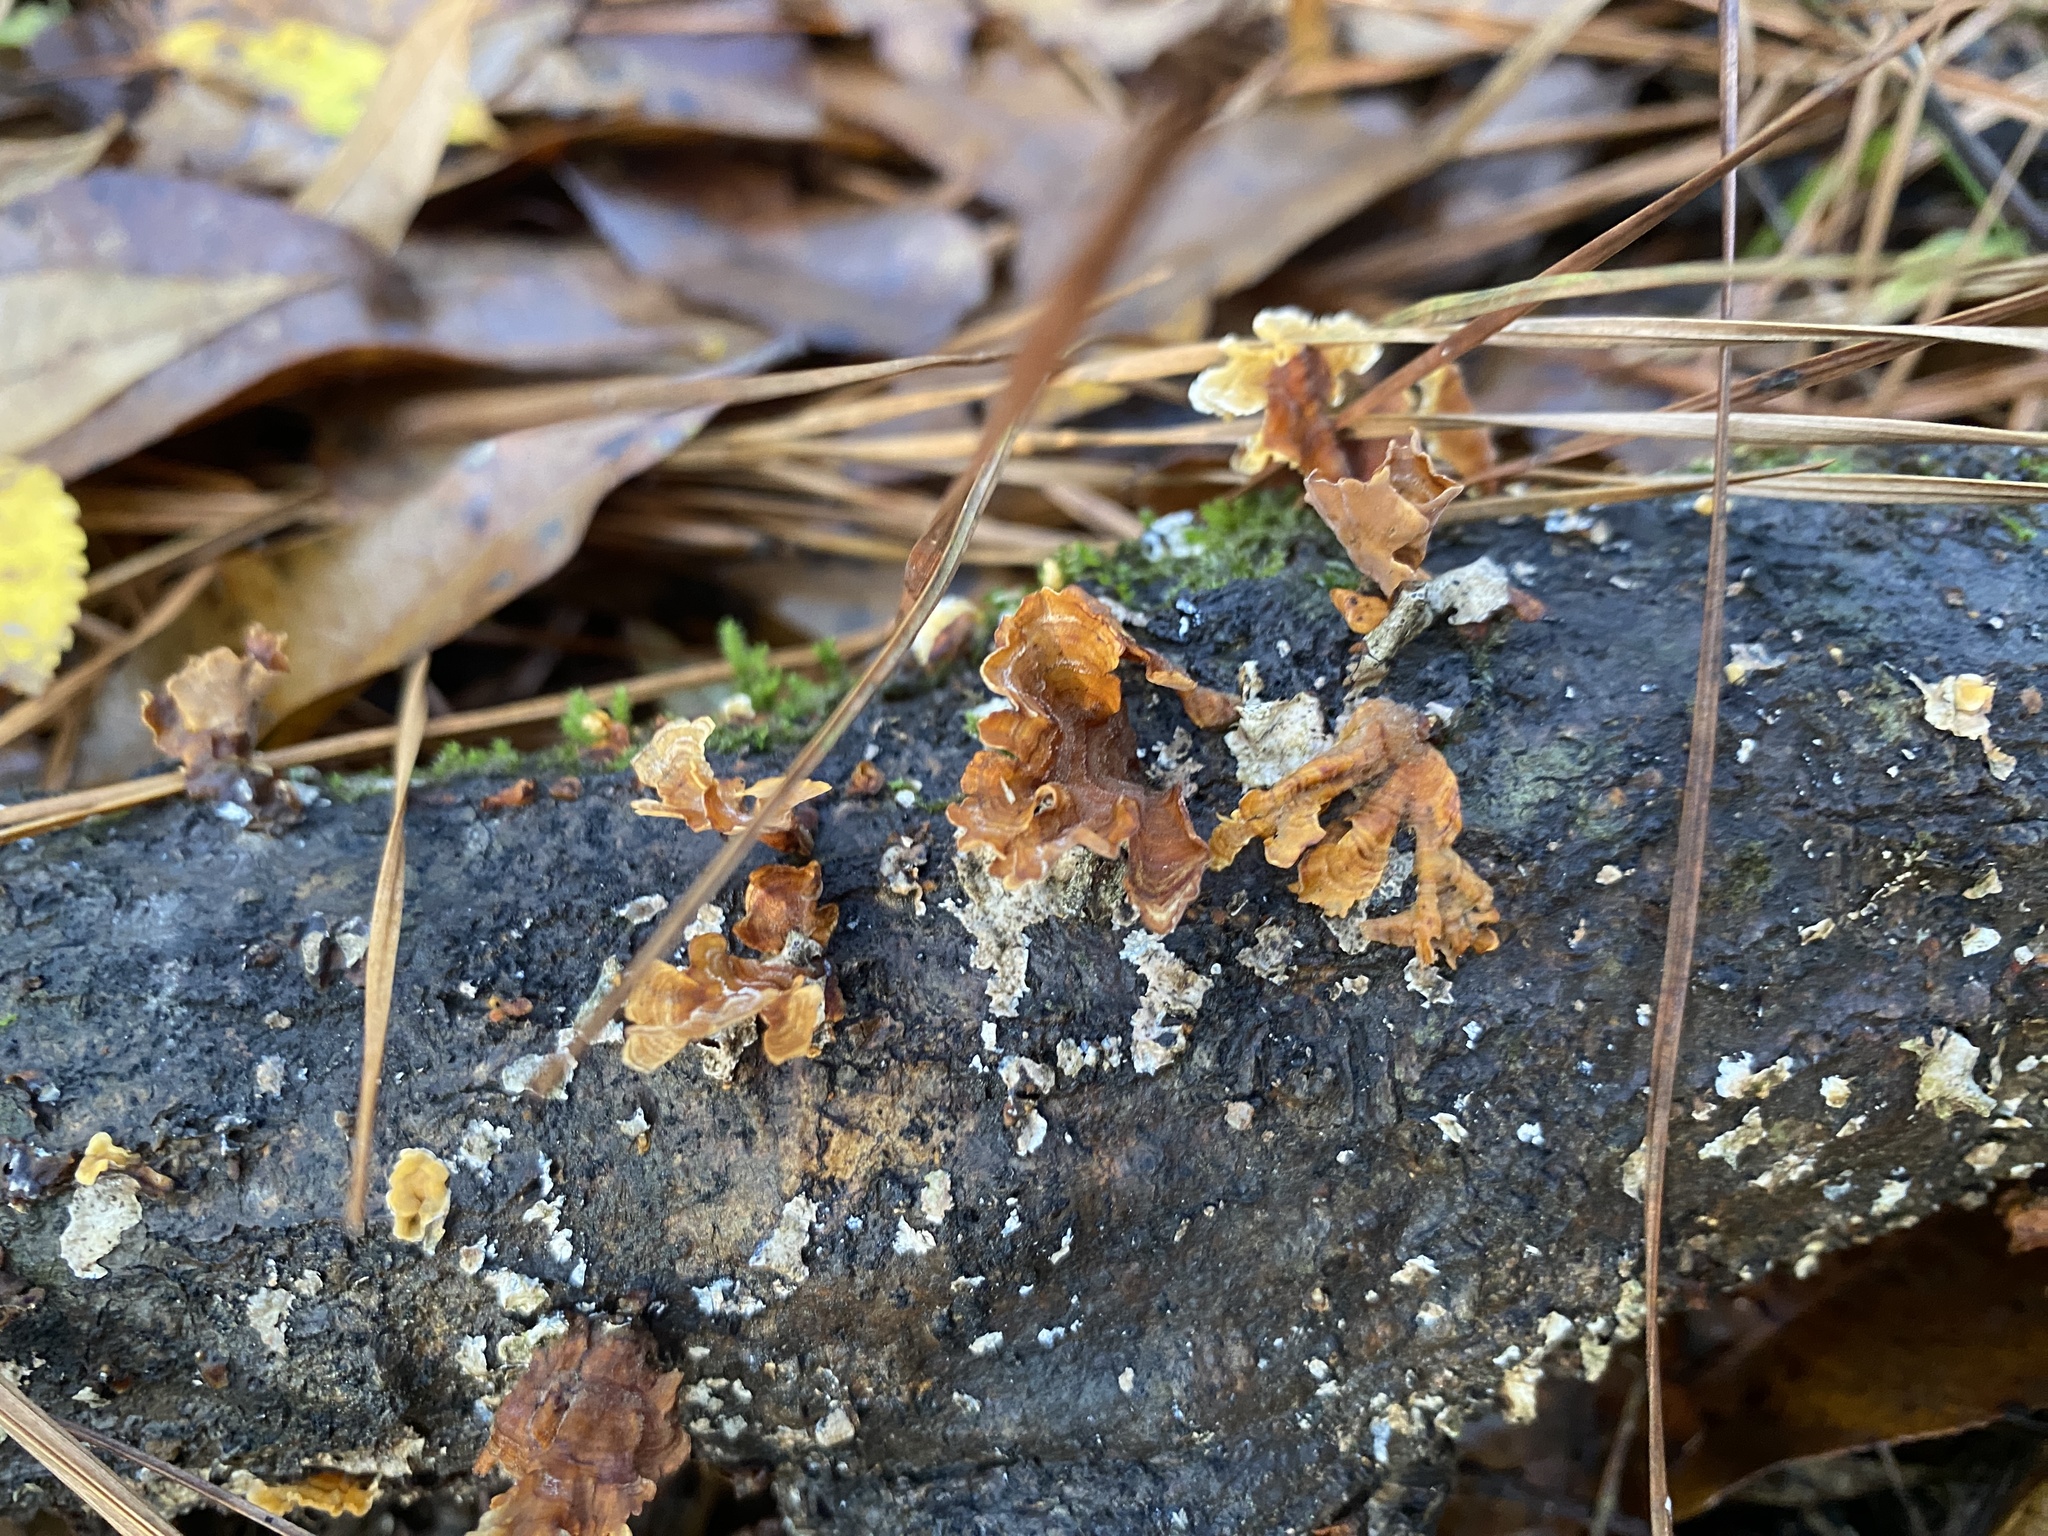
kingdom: Fungi
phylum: Basidiomycota
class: Agaricomycetes
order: Russulales
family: Stereaceae
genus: Stereum
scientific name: Stereum complicatum
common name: Crowded parchment
